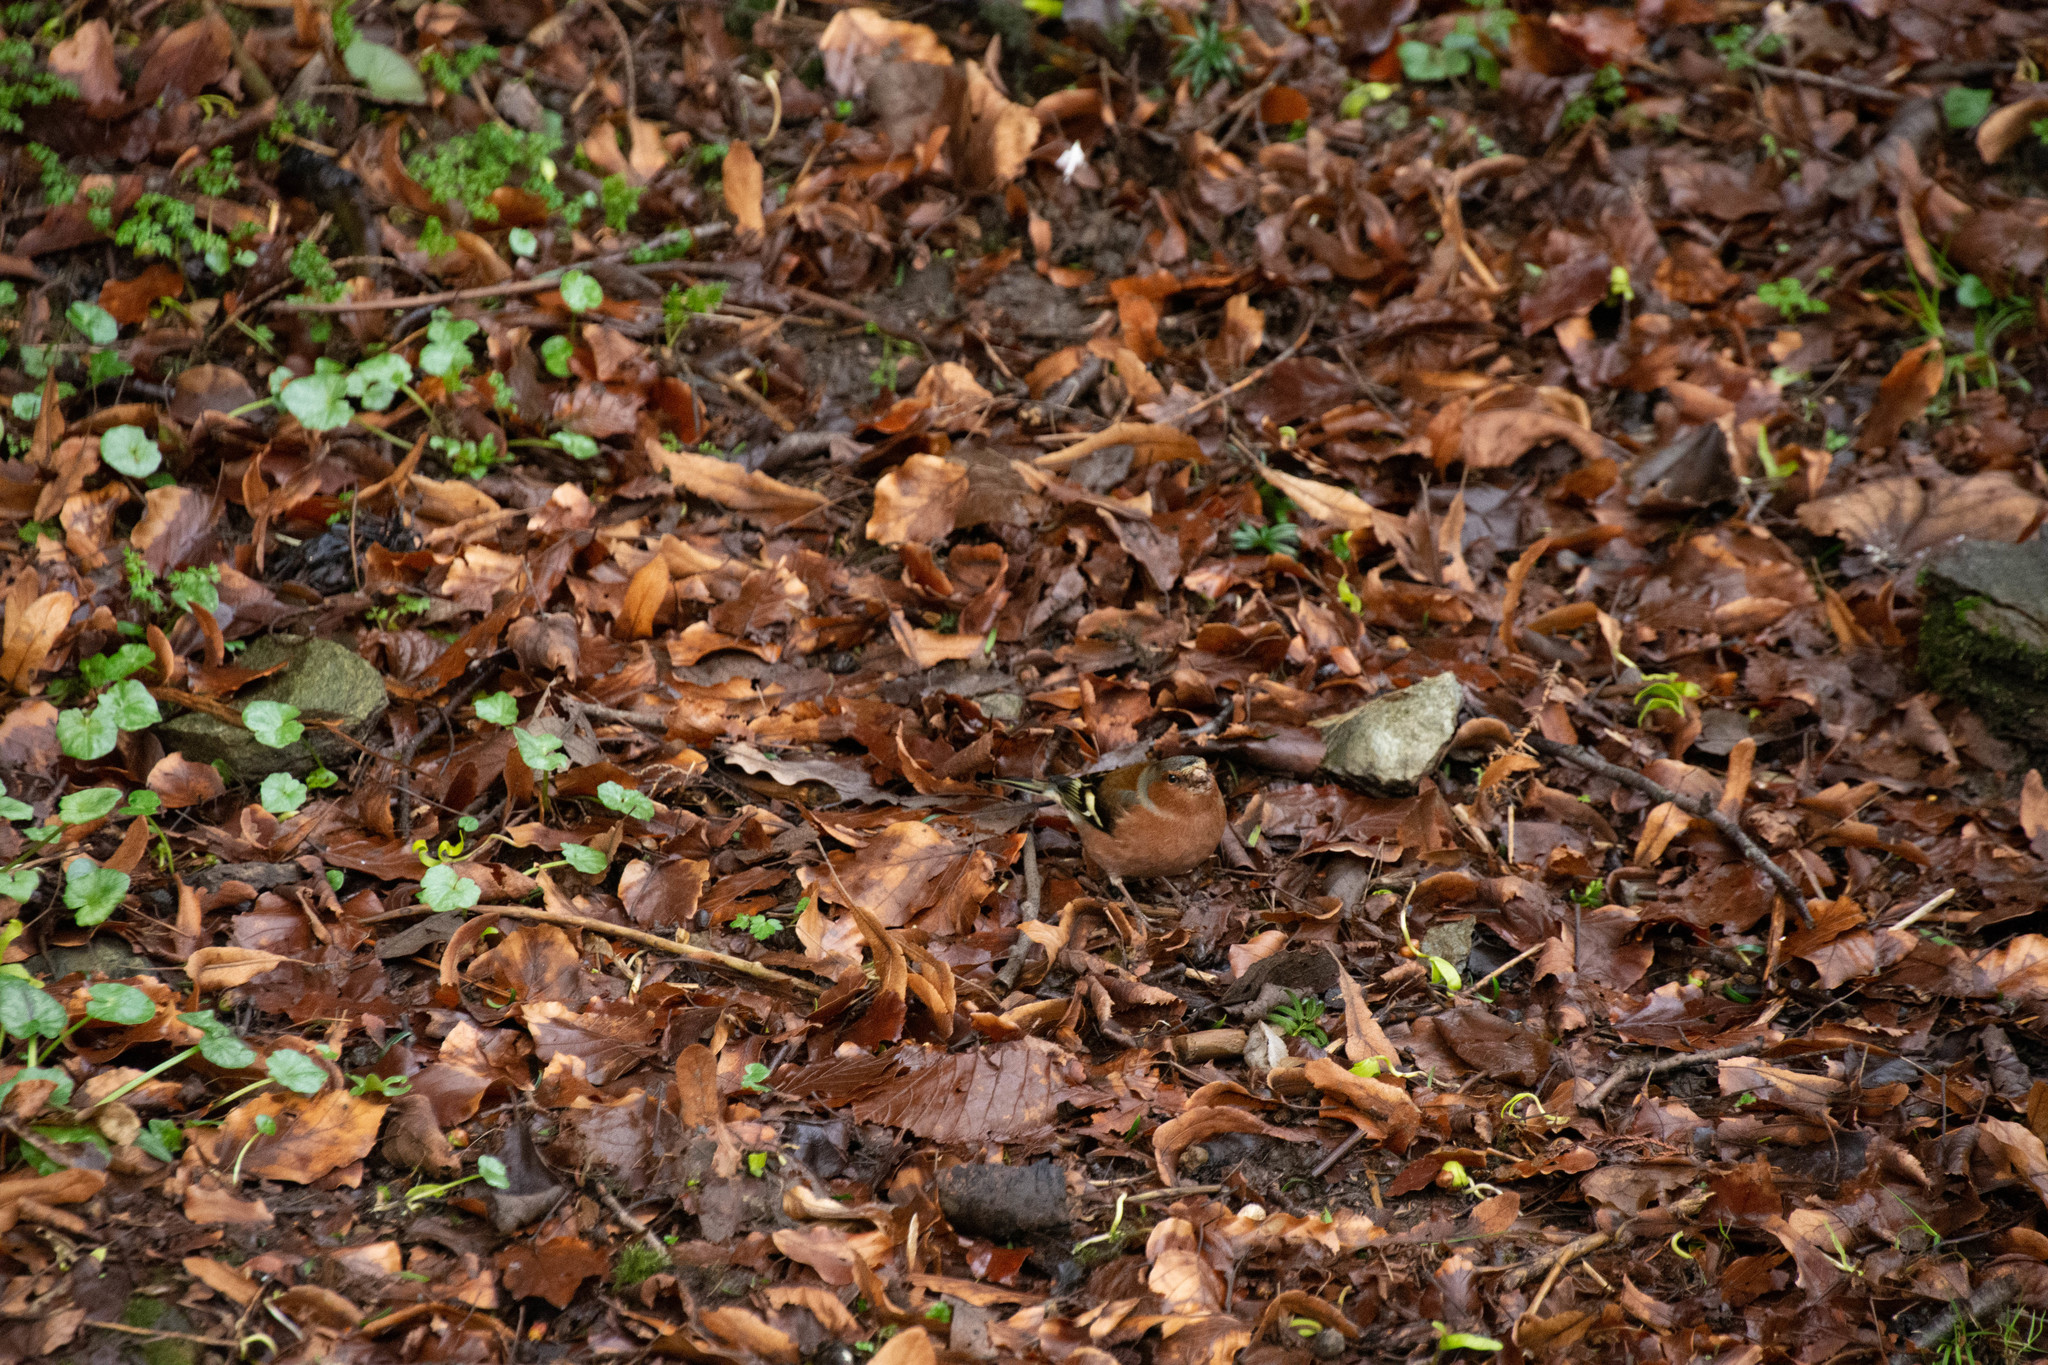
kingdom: Animalia
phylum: Chordata
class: Aves
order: Passeriformes
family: Fringillidae
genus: Fringilla
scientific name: Fringilla coelebs
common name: Common chaffinch
